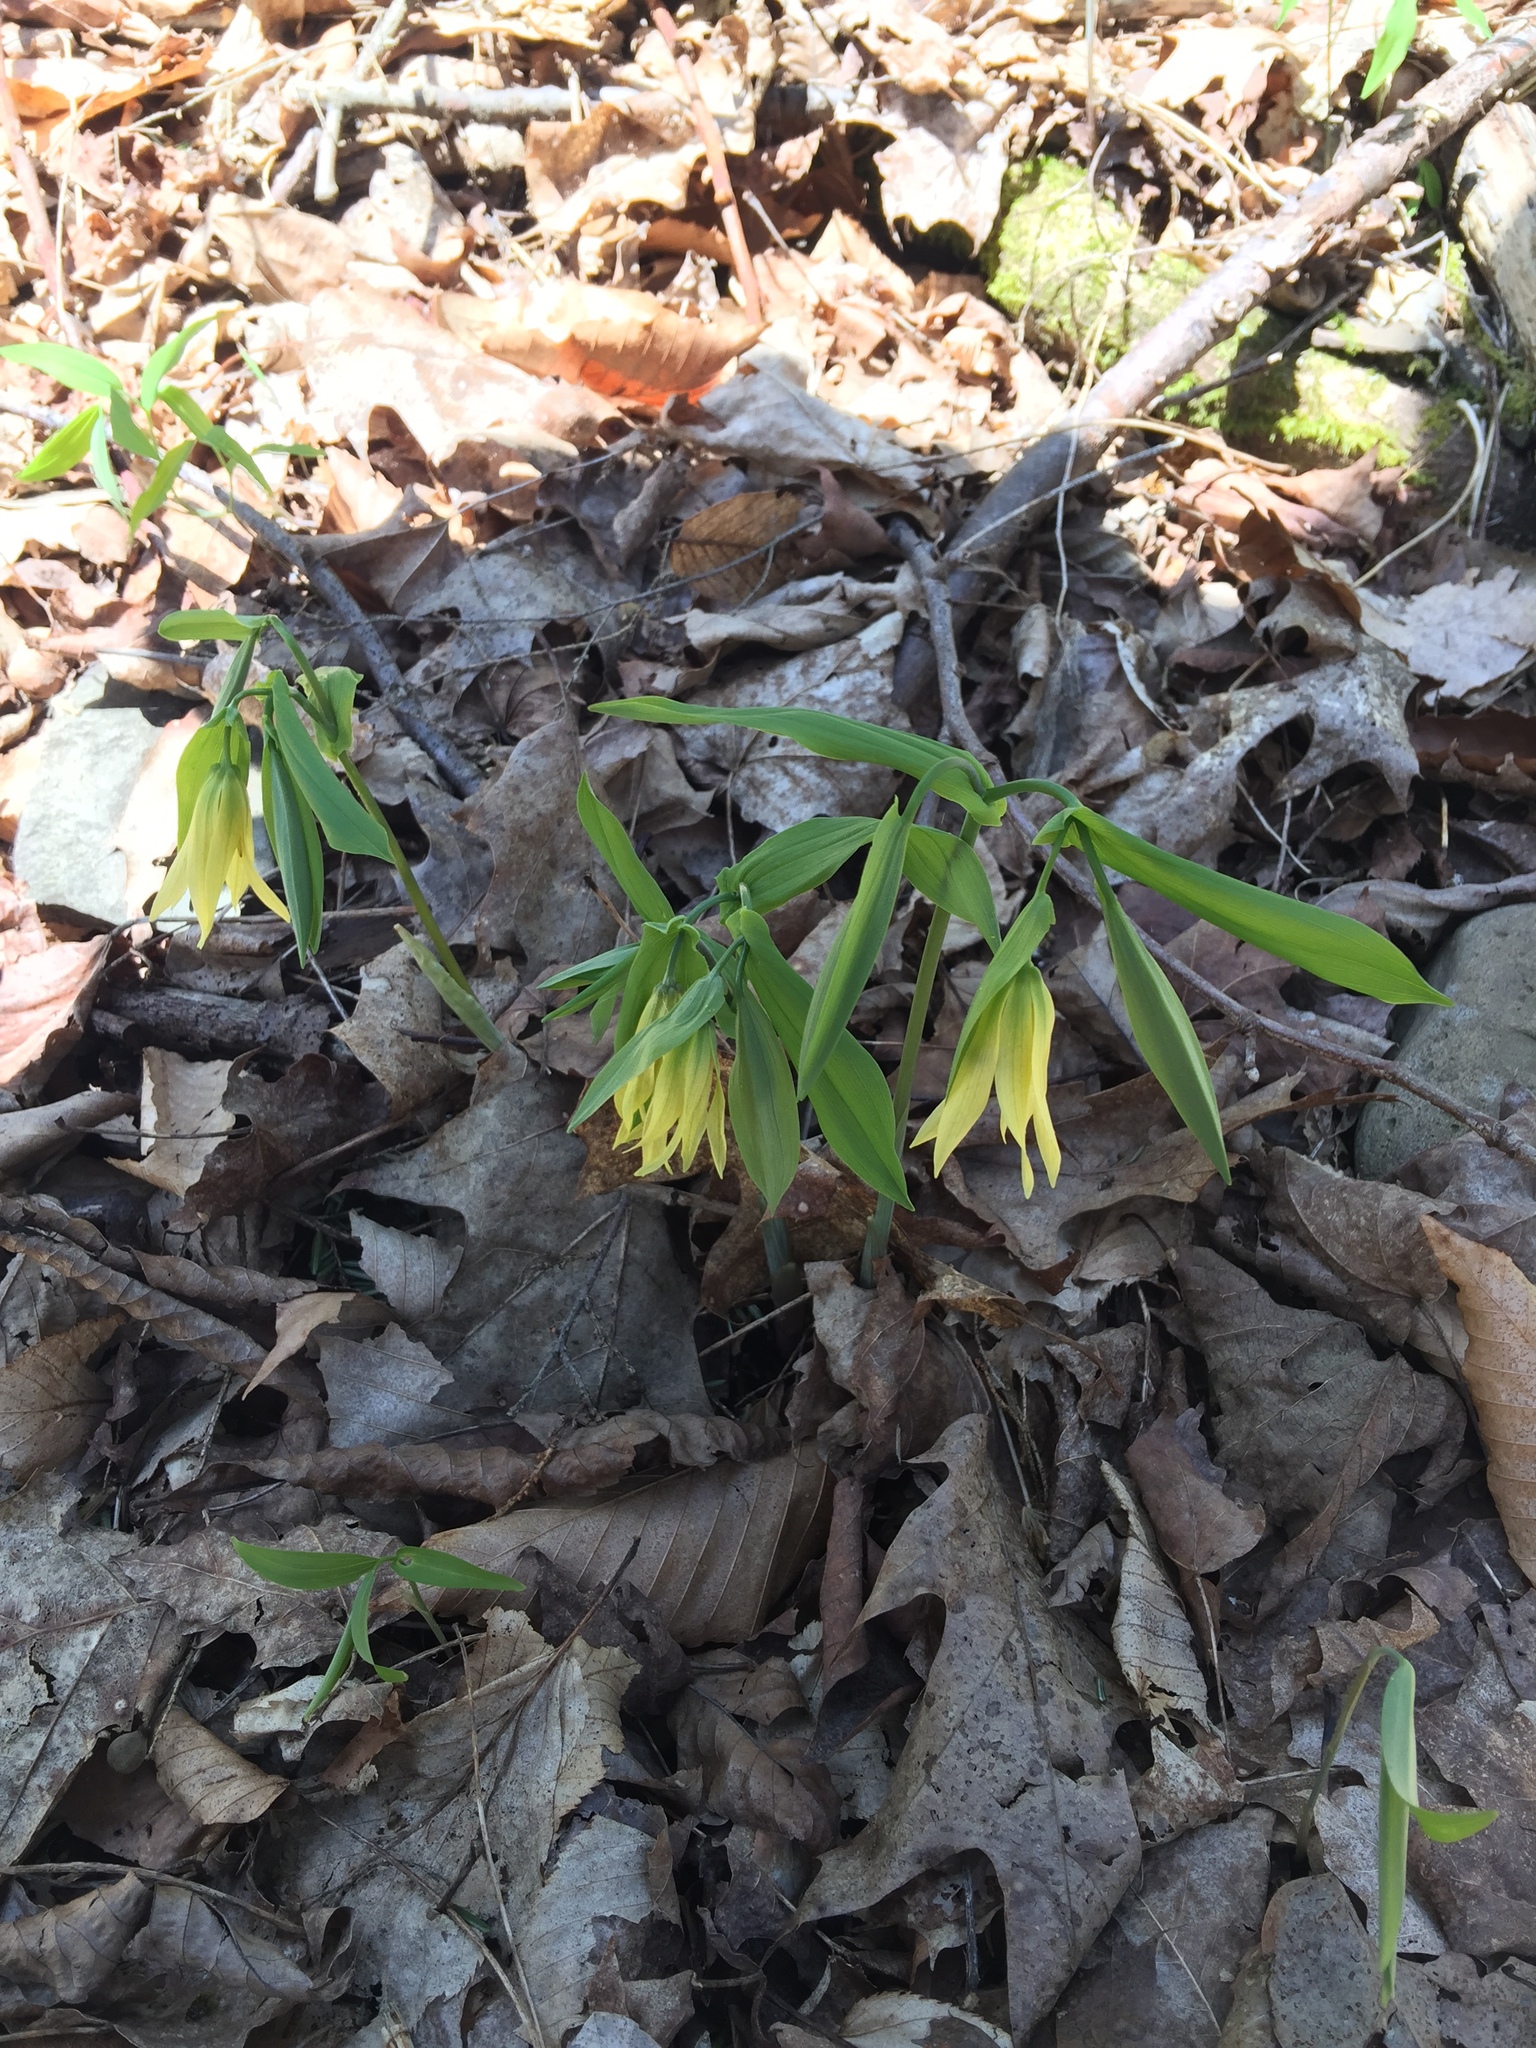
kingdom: Plantae
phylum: Tracheophyta
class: Liliopsida
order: Liliales
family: Colchicaceae
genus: Uvularia
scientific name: Uvularia grandiflora
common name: Bellwort
